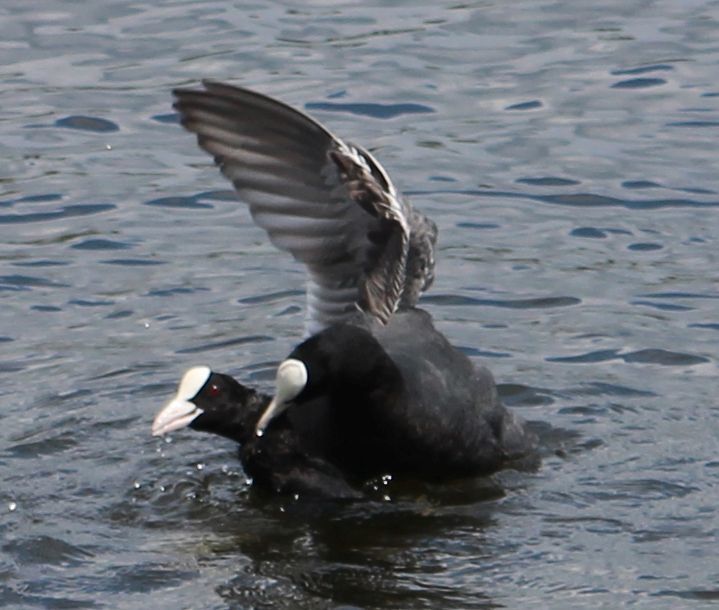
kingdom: Animalia
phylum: Chordata
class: Aves
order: Gruiformes
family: Rallidae
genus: Fulica
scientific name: Fulica atra
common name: Eurasian coot
